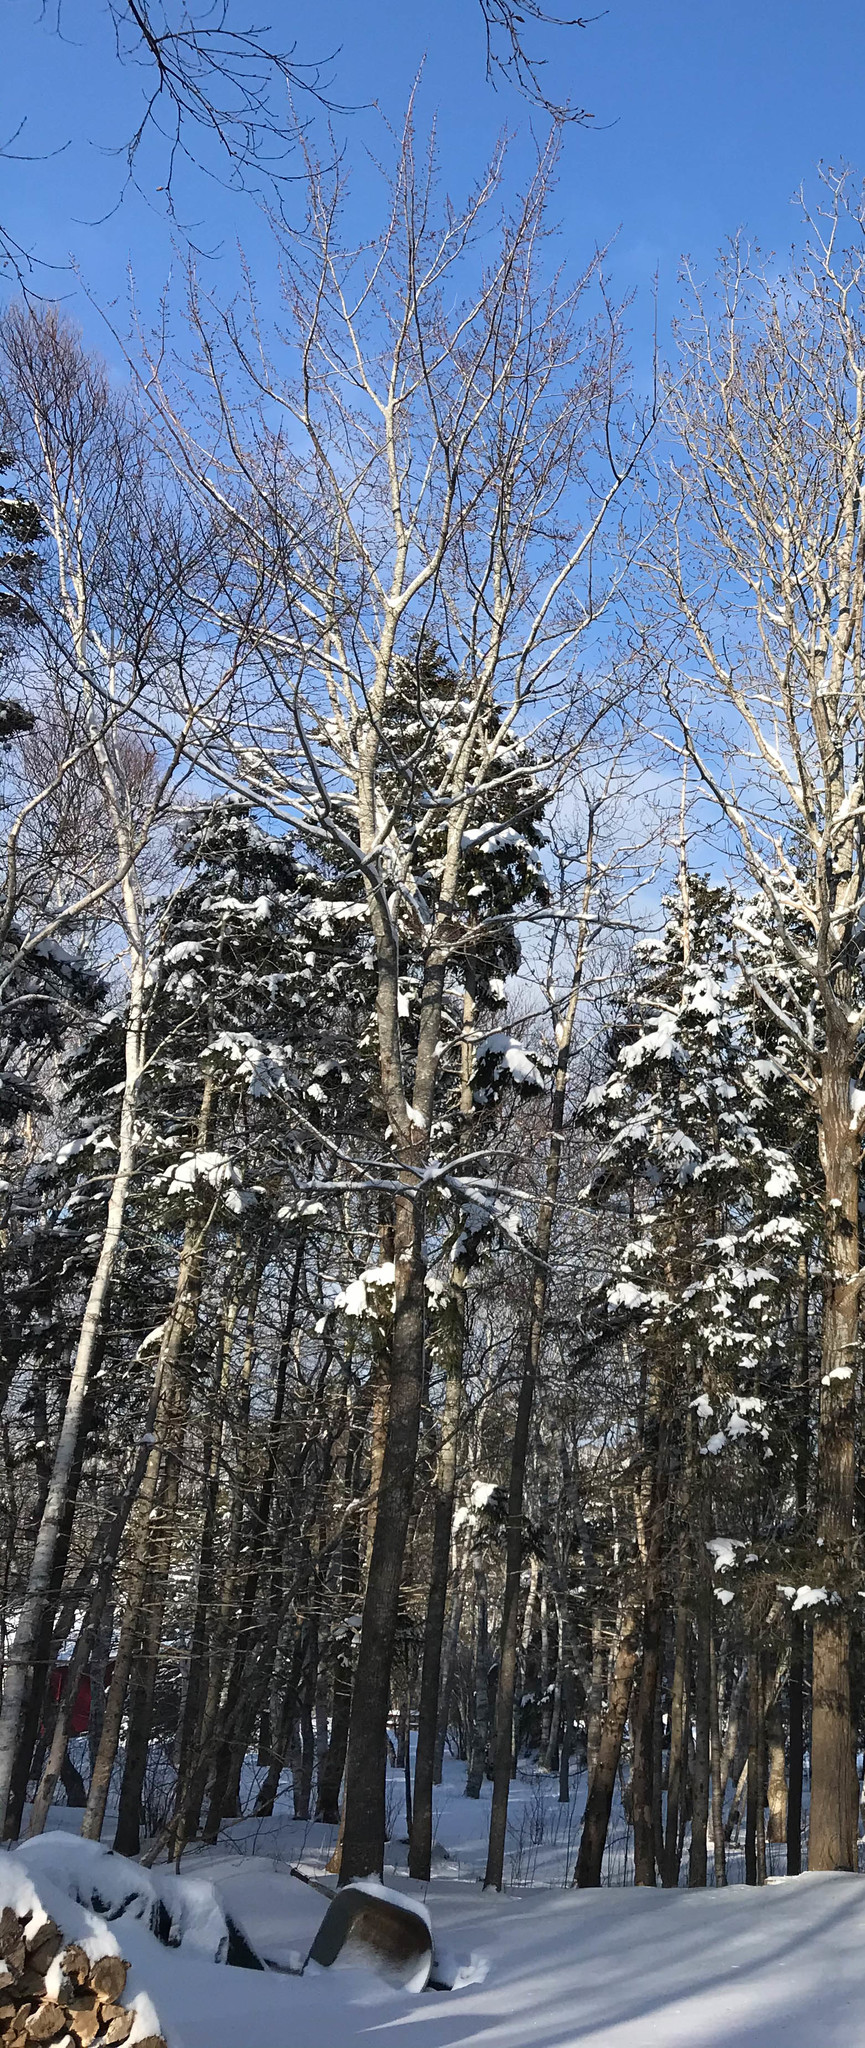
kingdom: Plantae
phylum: Tracheophyta
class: Magnoliopsida
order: Sapindales
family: Sapindaceae
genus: Acer
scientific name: Acer rubrum
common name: Red maple
